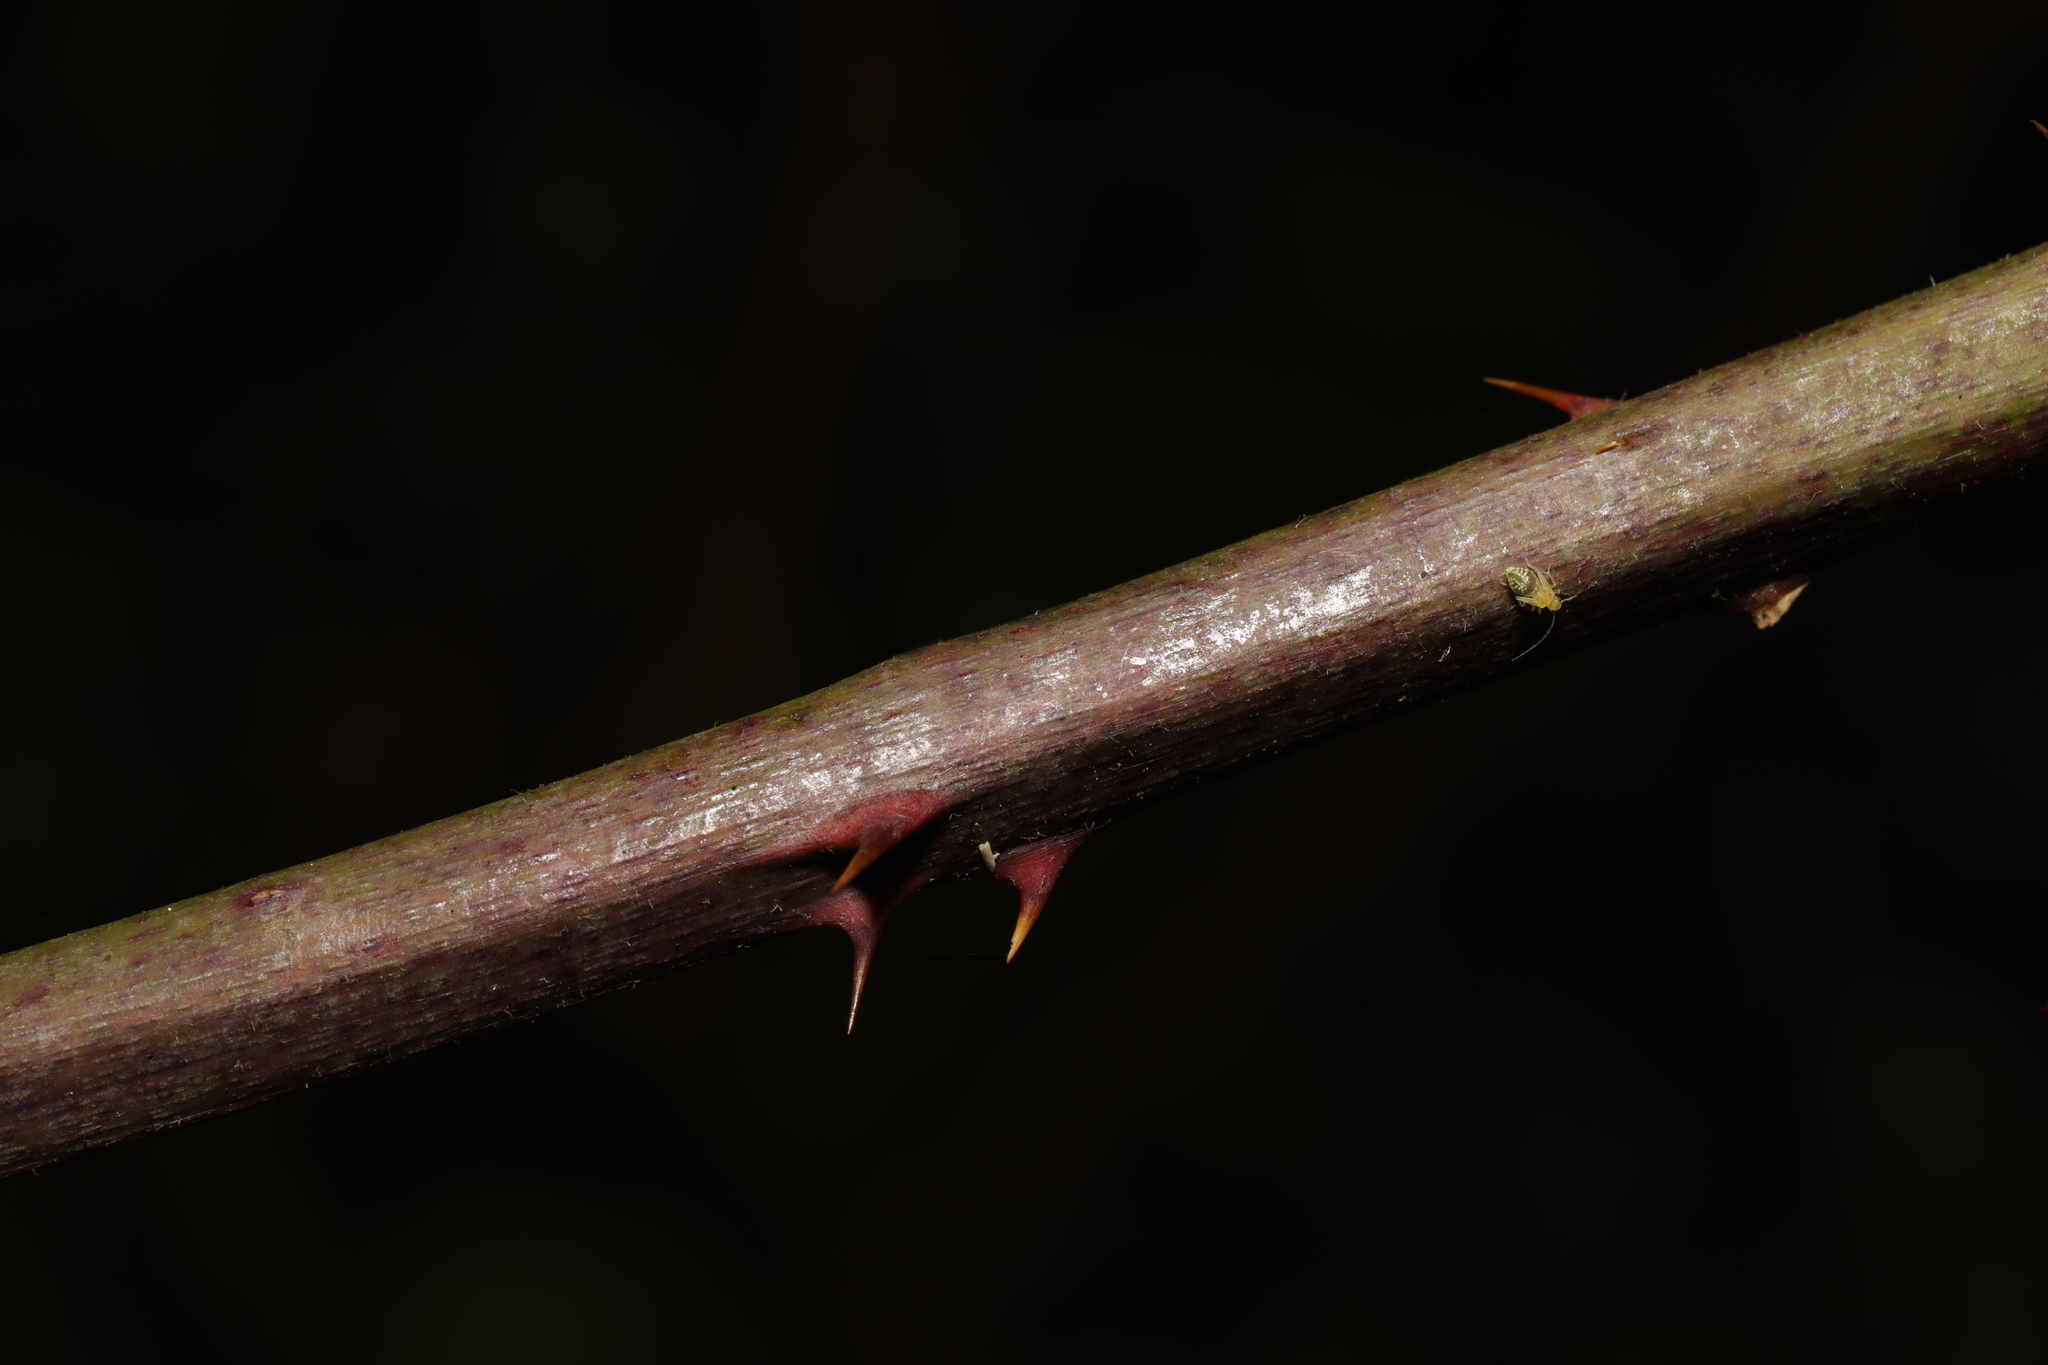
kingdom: Plantae
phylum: Tracheophyta
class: Magnoliopsida
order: Rosales
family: Rosaceae
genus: Rubus
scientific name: Rubus cissburiensis
